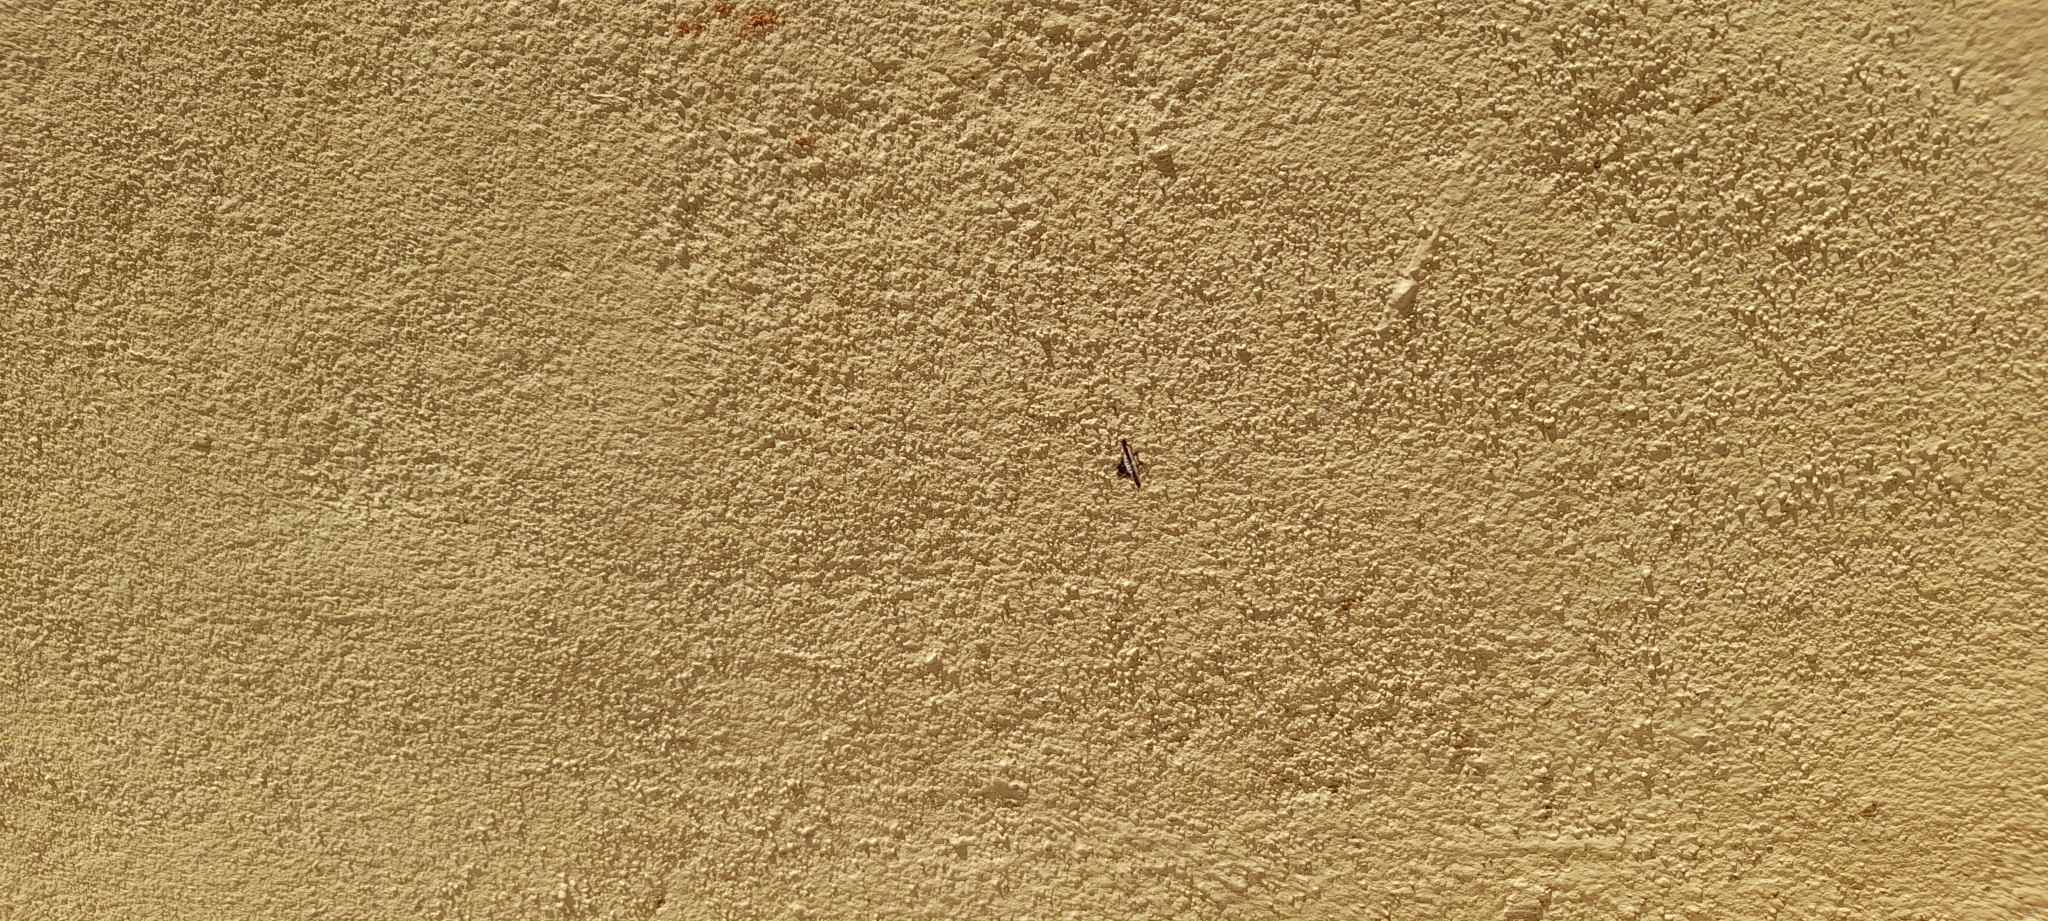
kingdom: Animalia
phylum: Arthropoda
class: Arachnida
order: Araneae
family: Araneidae
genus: Gasteracantha
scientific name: Gasteracantha geminata
